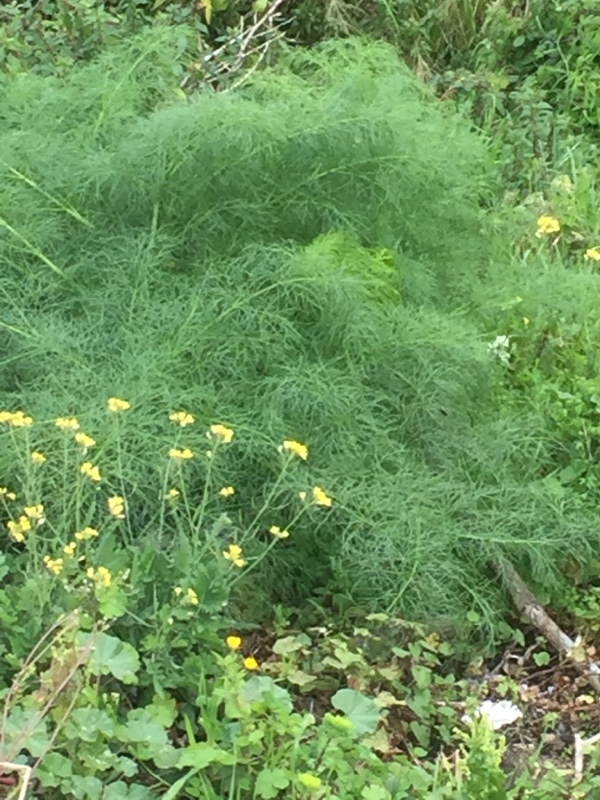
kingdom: Plantae
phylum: Tracheophyta
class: Magnoliopsida
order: Apiales
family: Apiaceae
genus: Foeniculum
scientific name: Foeniculum vulgare
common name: Fennel
